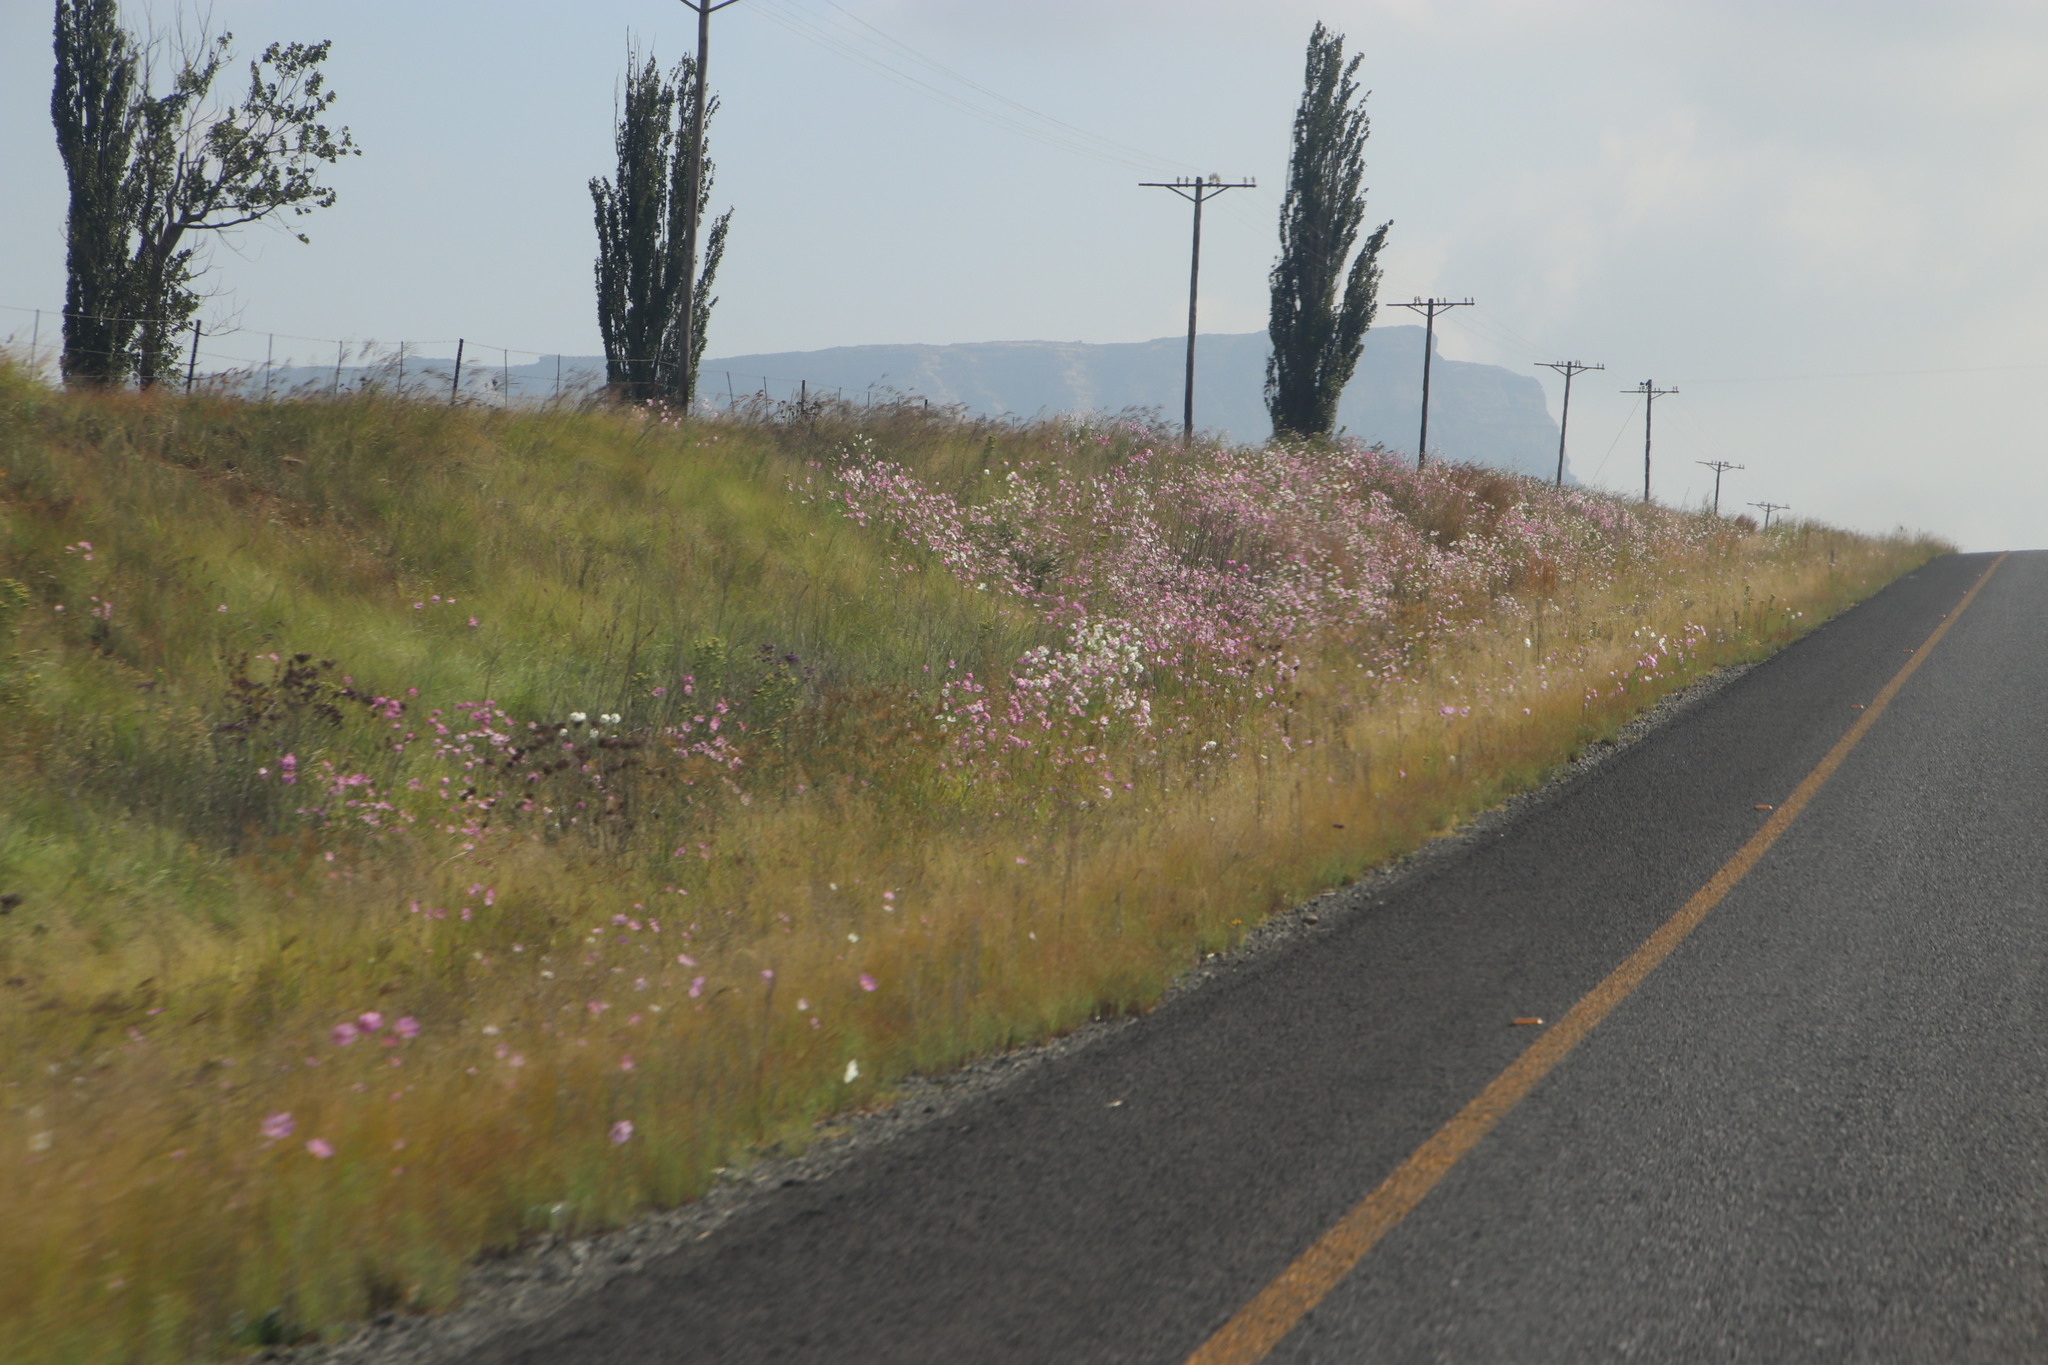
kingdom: Plantae
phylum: Tracheophyta
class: Magnoliopsida
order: Asterales
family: Asteraceae
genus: Cosmos
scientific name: Cosmos bipinnatus
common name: Garden cosmos
